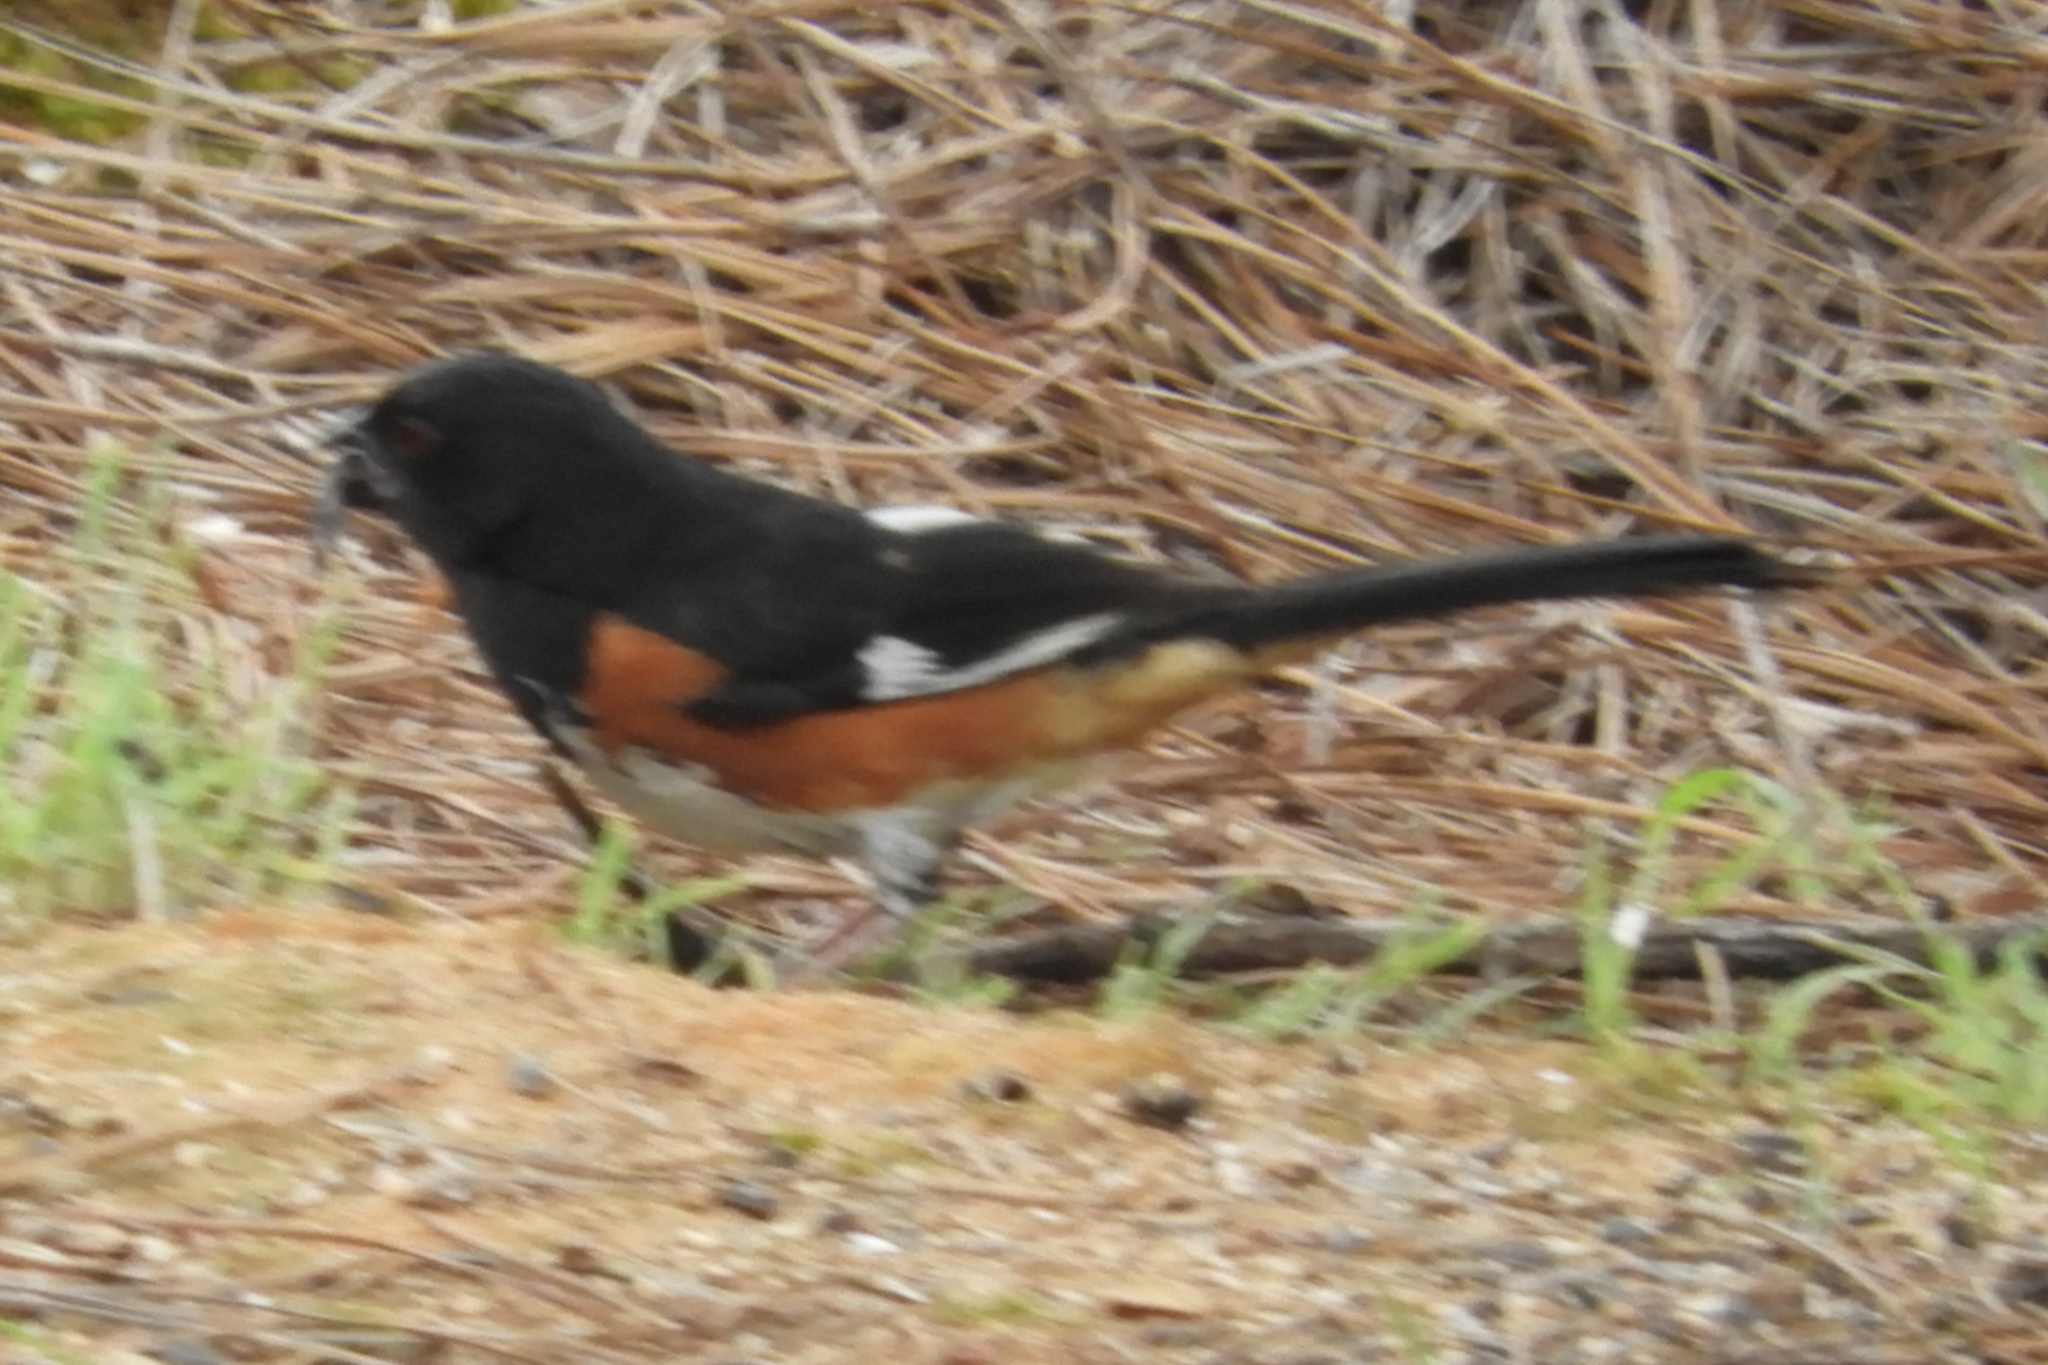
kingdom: Animalia
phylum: Chordata
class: Aves
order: Passeriformes
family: Passerellidae
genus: Pipilo
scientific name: Pipilo erythrophthalmus
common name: Eastern towhee
